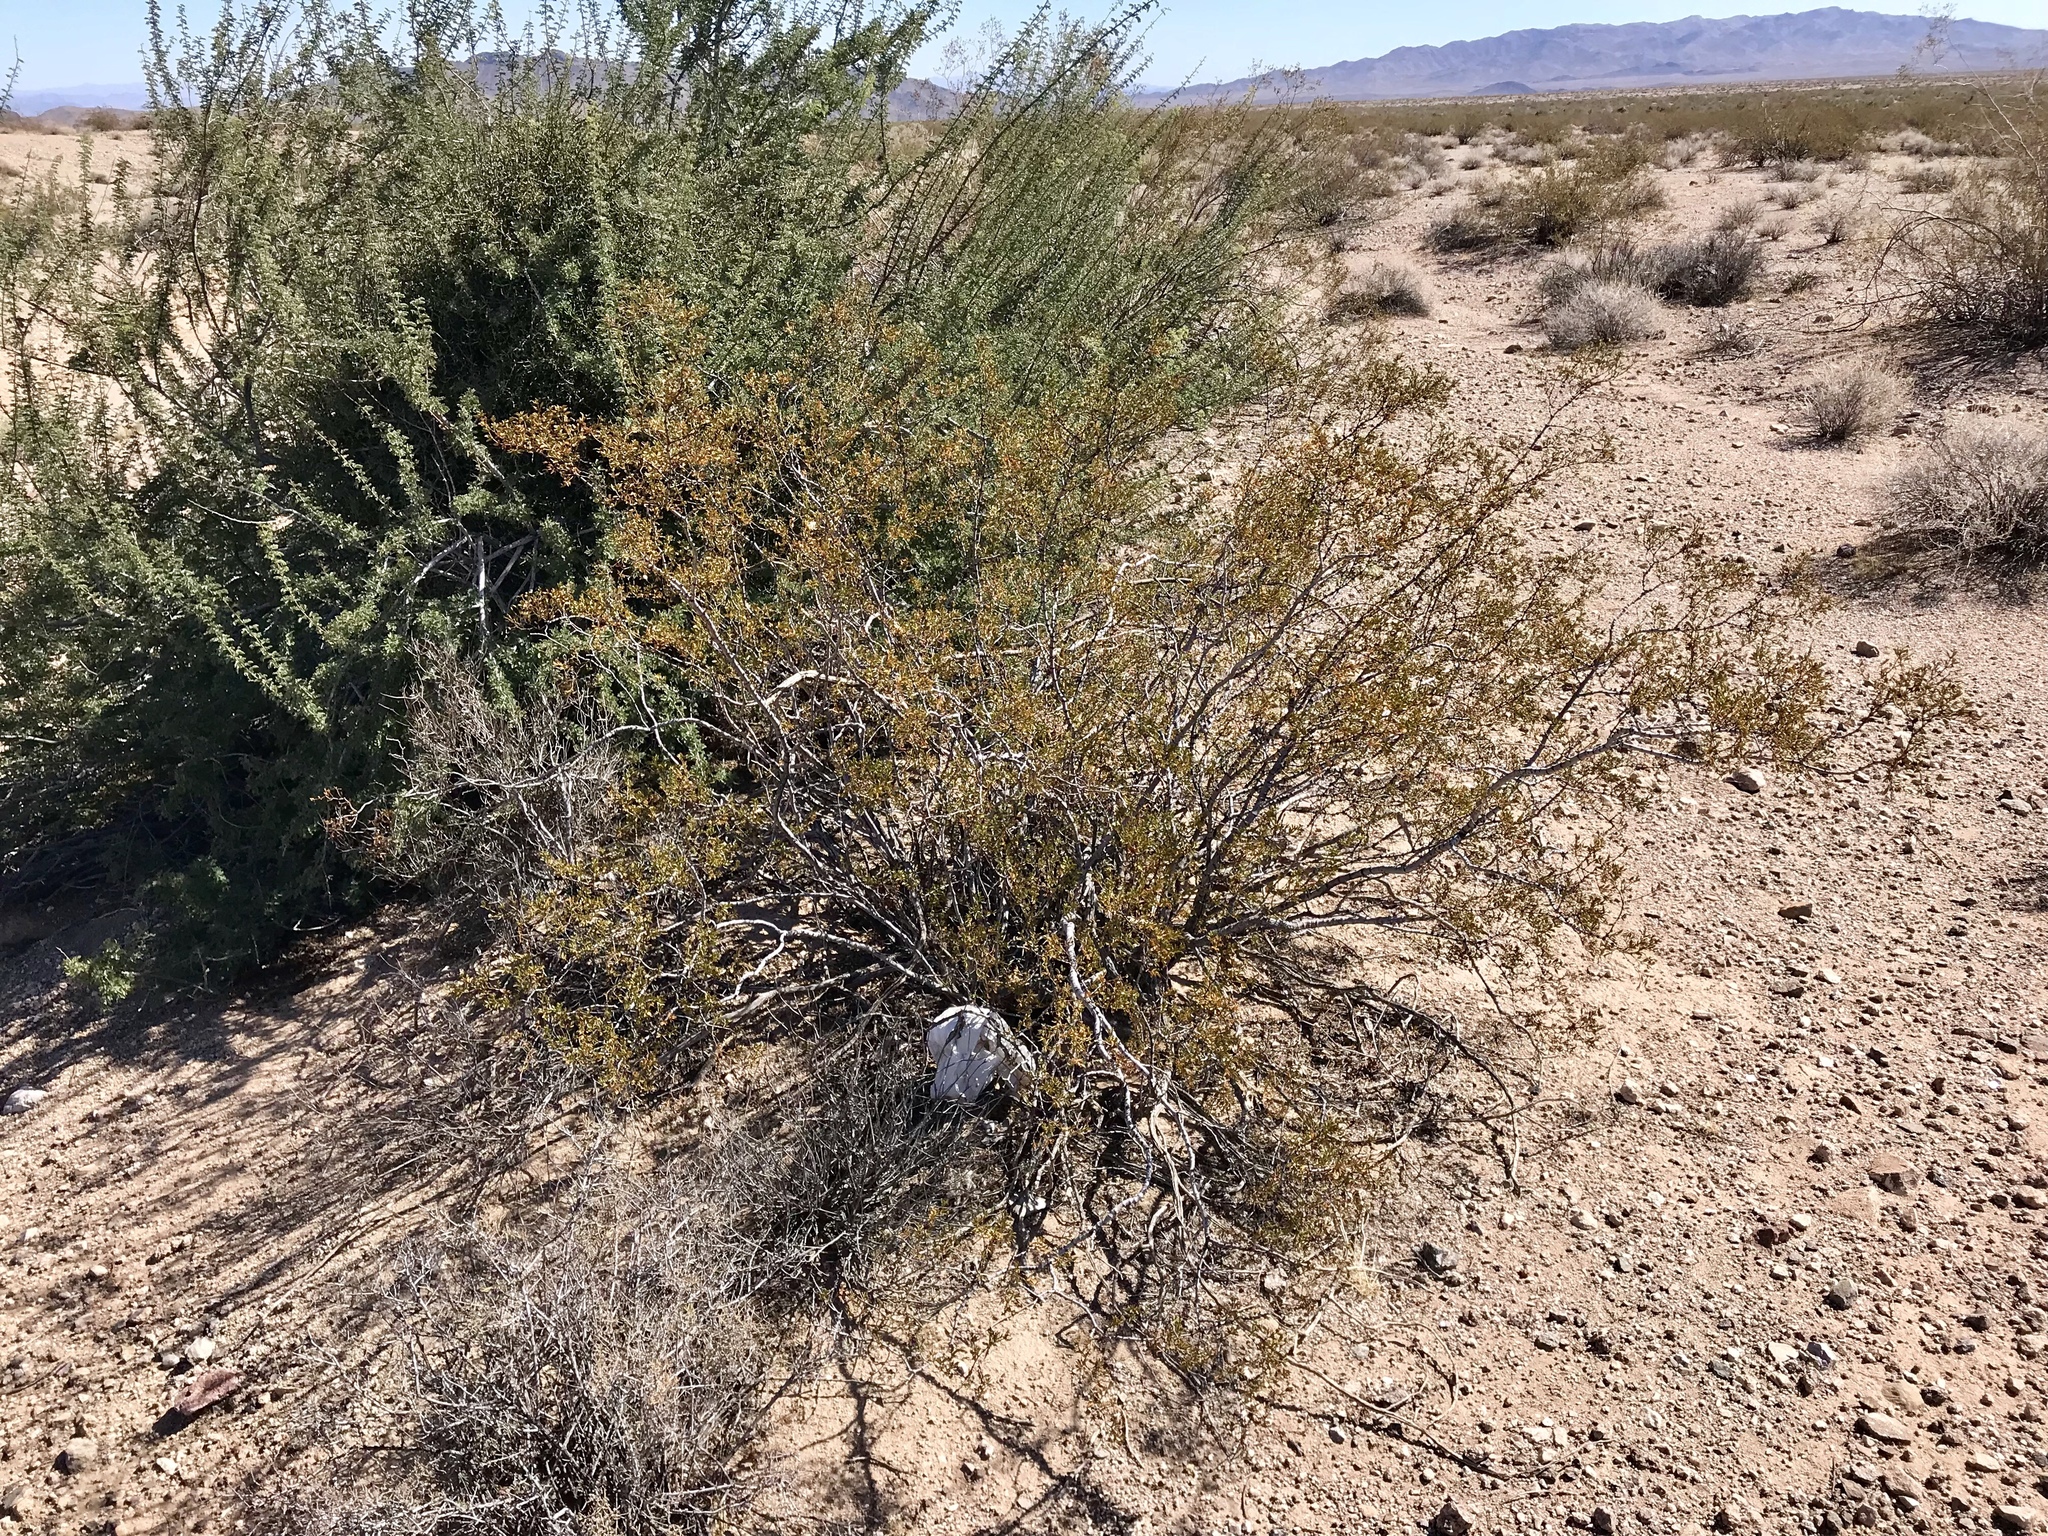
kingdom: Plantae
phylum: Tracheophyta
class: Magnoliopsida
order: Zygophyllales
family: Zygophyllaceae
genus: Larrea
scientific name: Larrea tridentata
